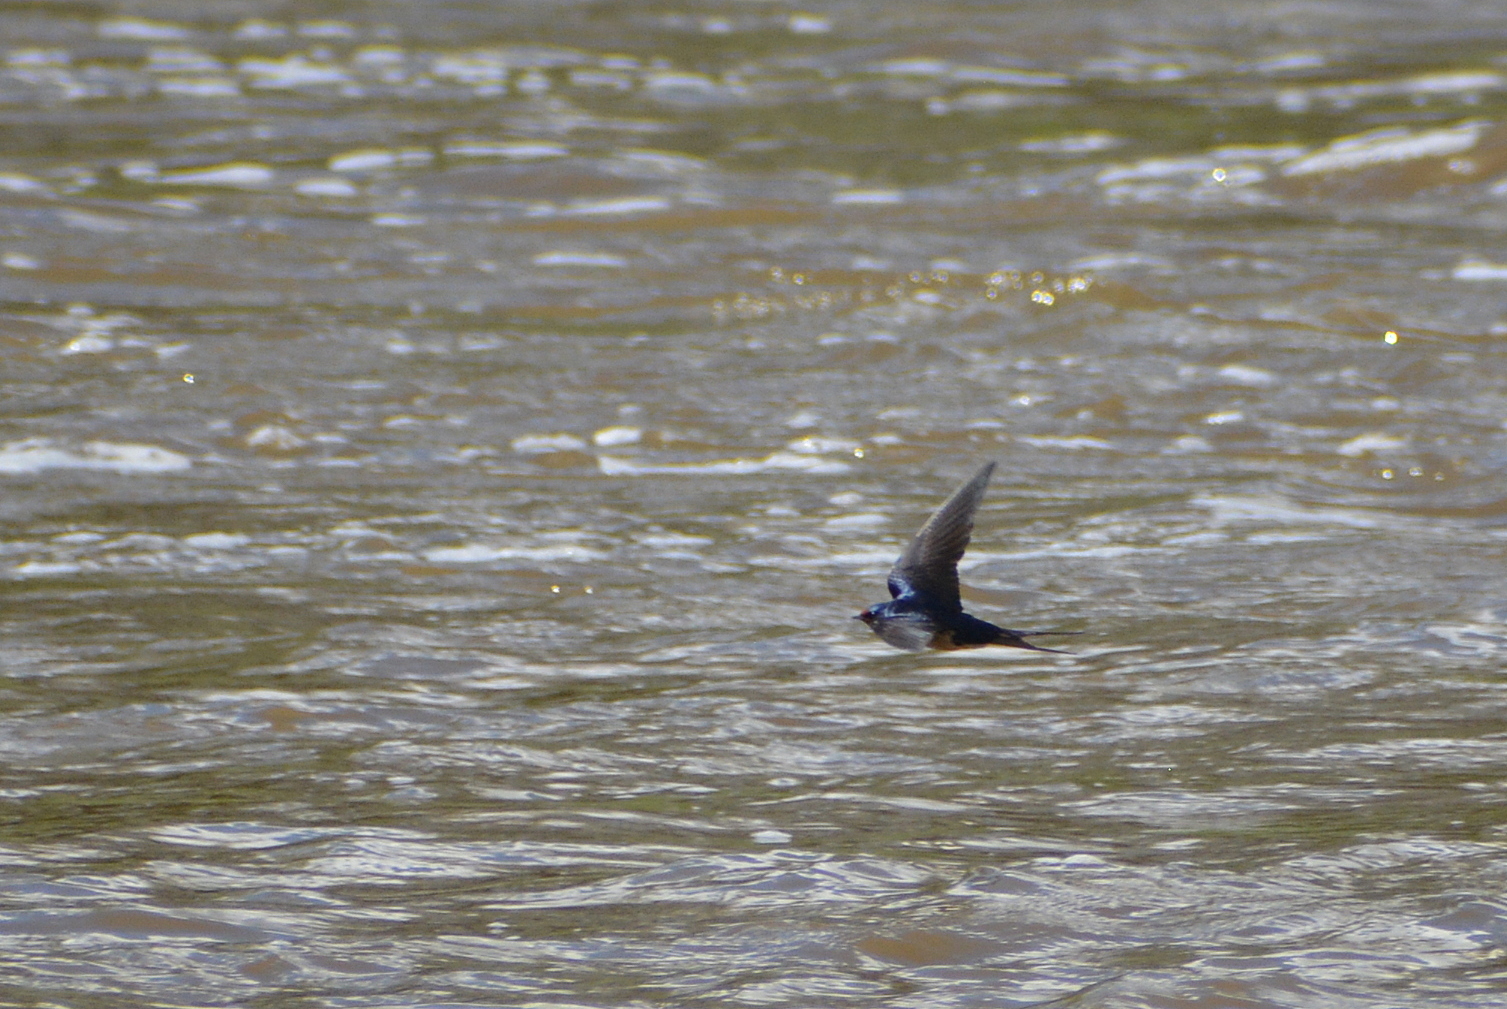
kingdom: Animalia
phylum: Chordata
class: Aves
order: Passeriformes
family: Hirundinidae
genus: Hirundo
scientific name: Hirundo rustica
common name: Barn swallow
